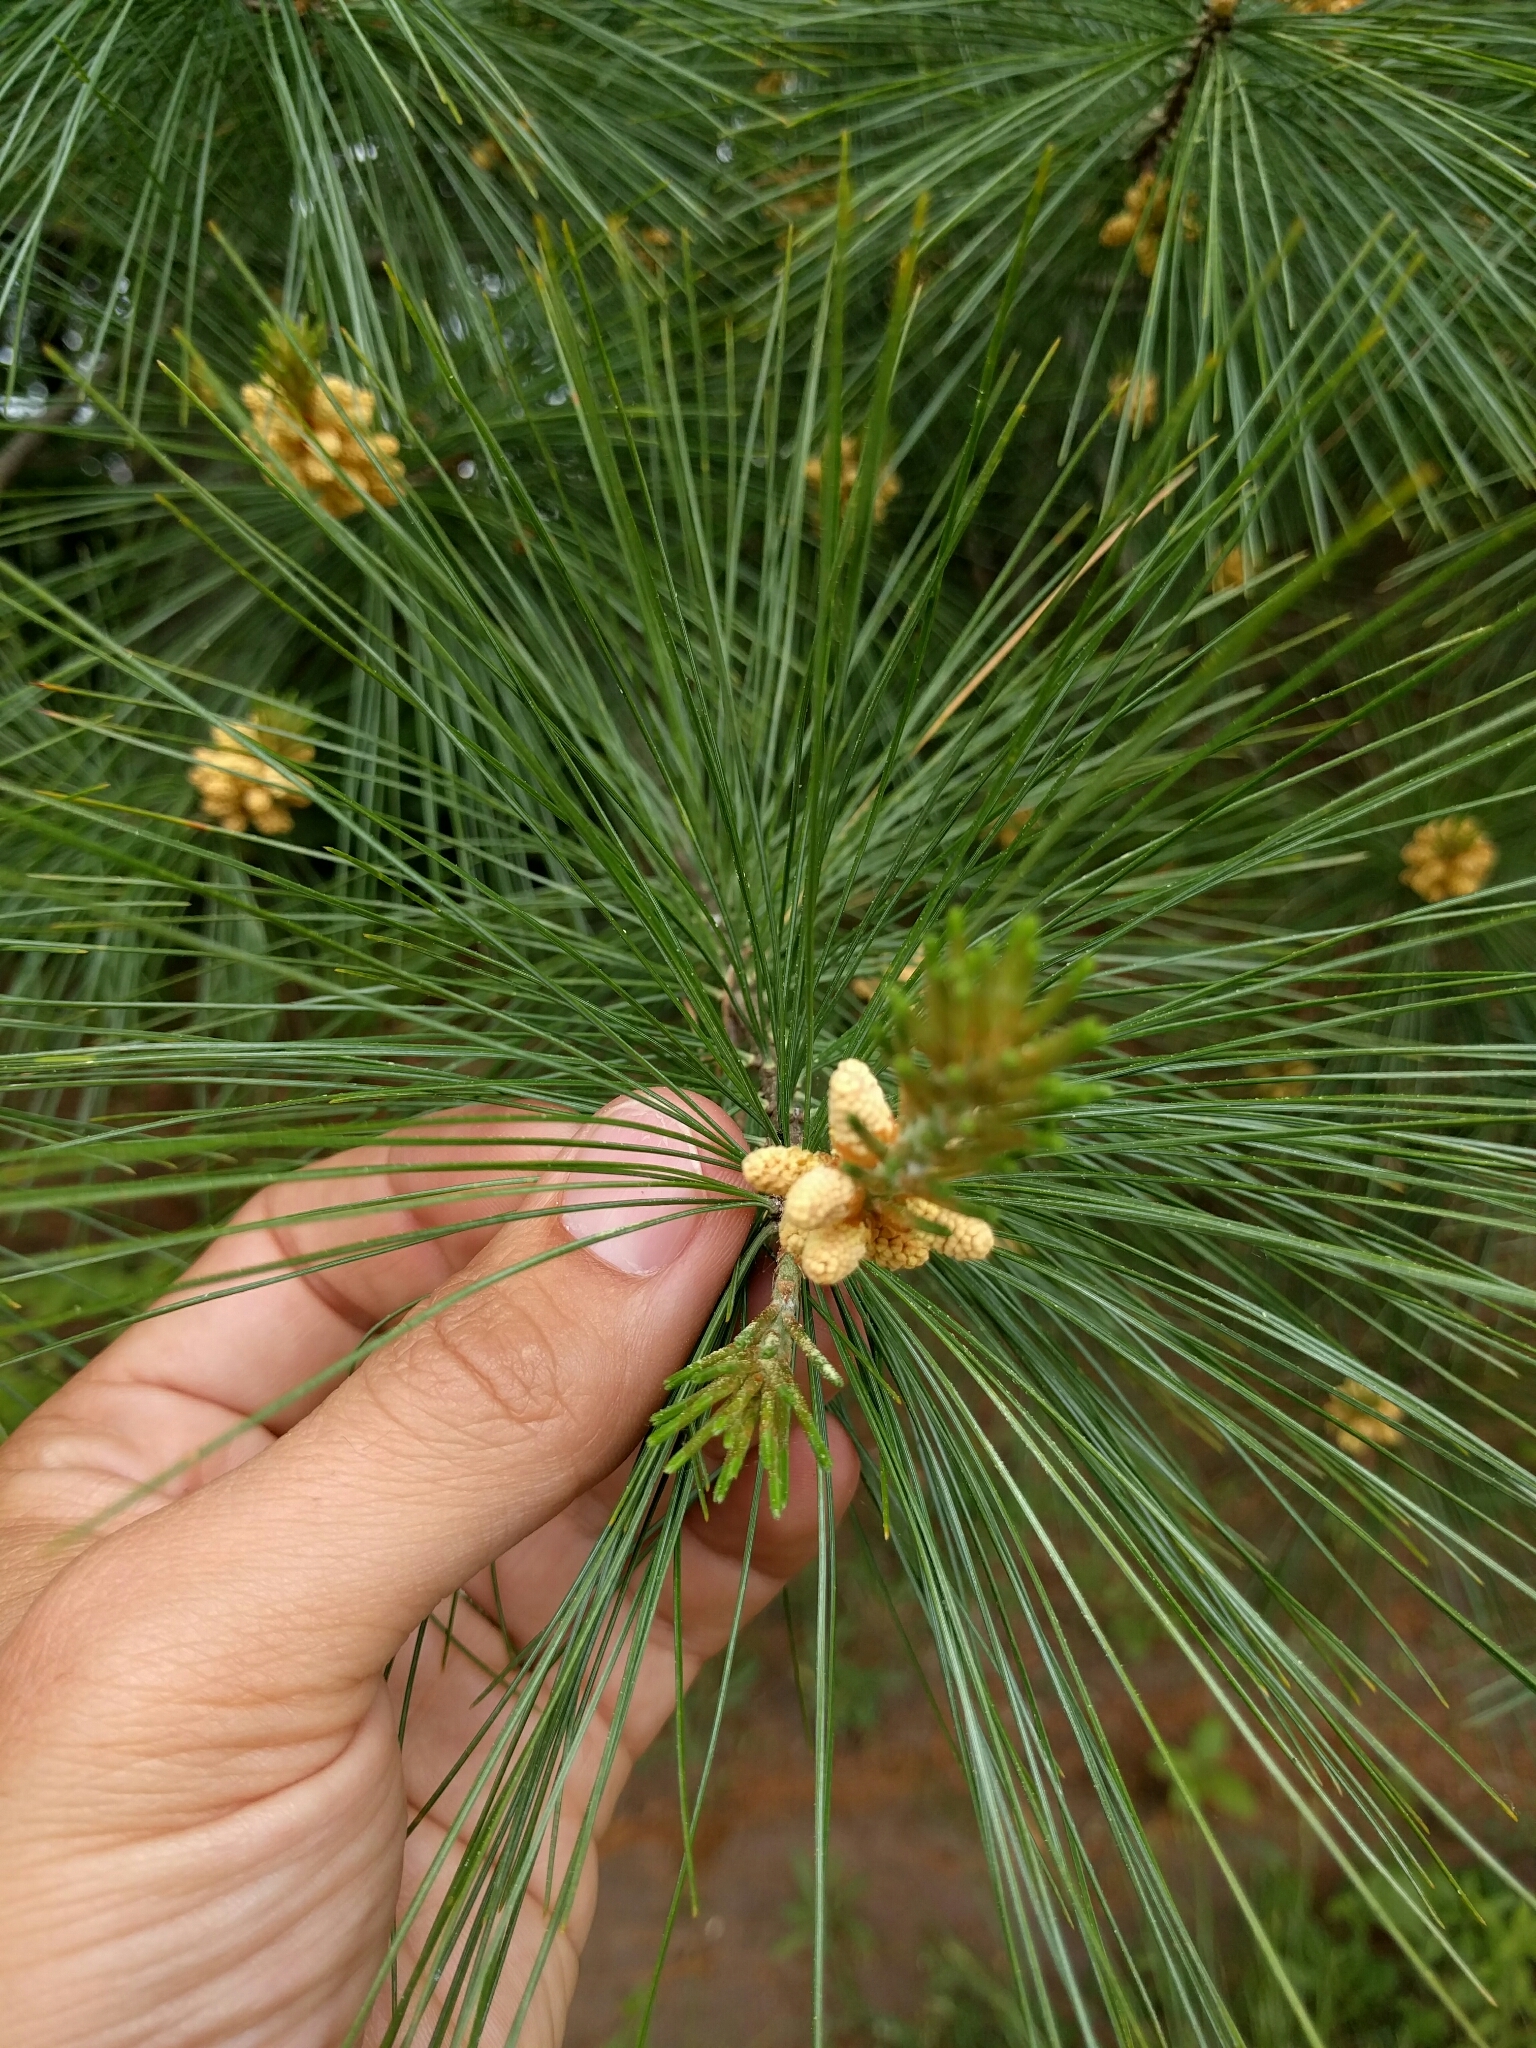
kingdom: Plantae
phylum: Tracheophyta
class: Pinopsida
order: Pinales
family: Pinaceae
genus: Pinus
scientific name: Pinus strobus
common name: Weymouth pine
